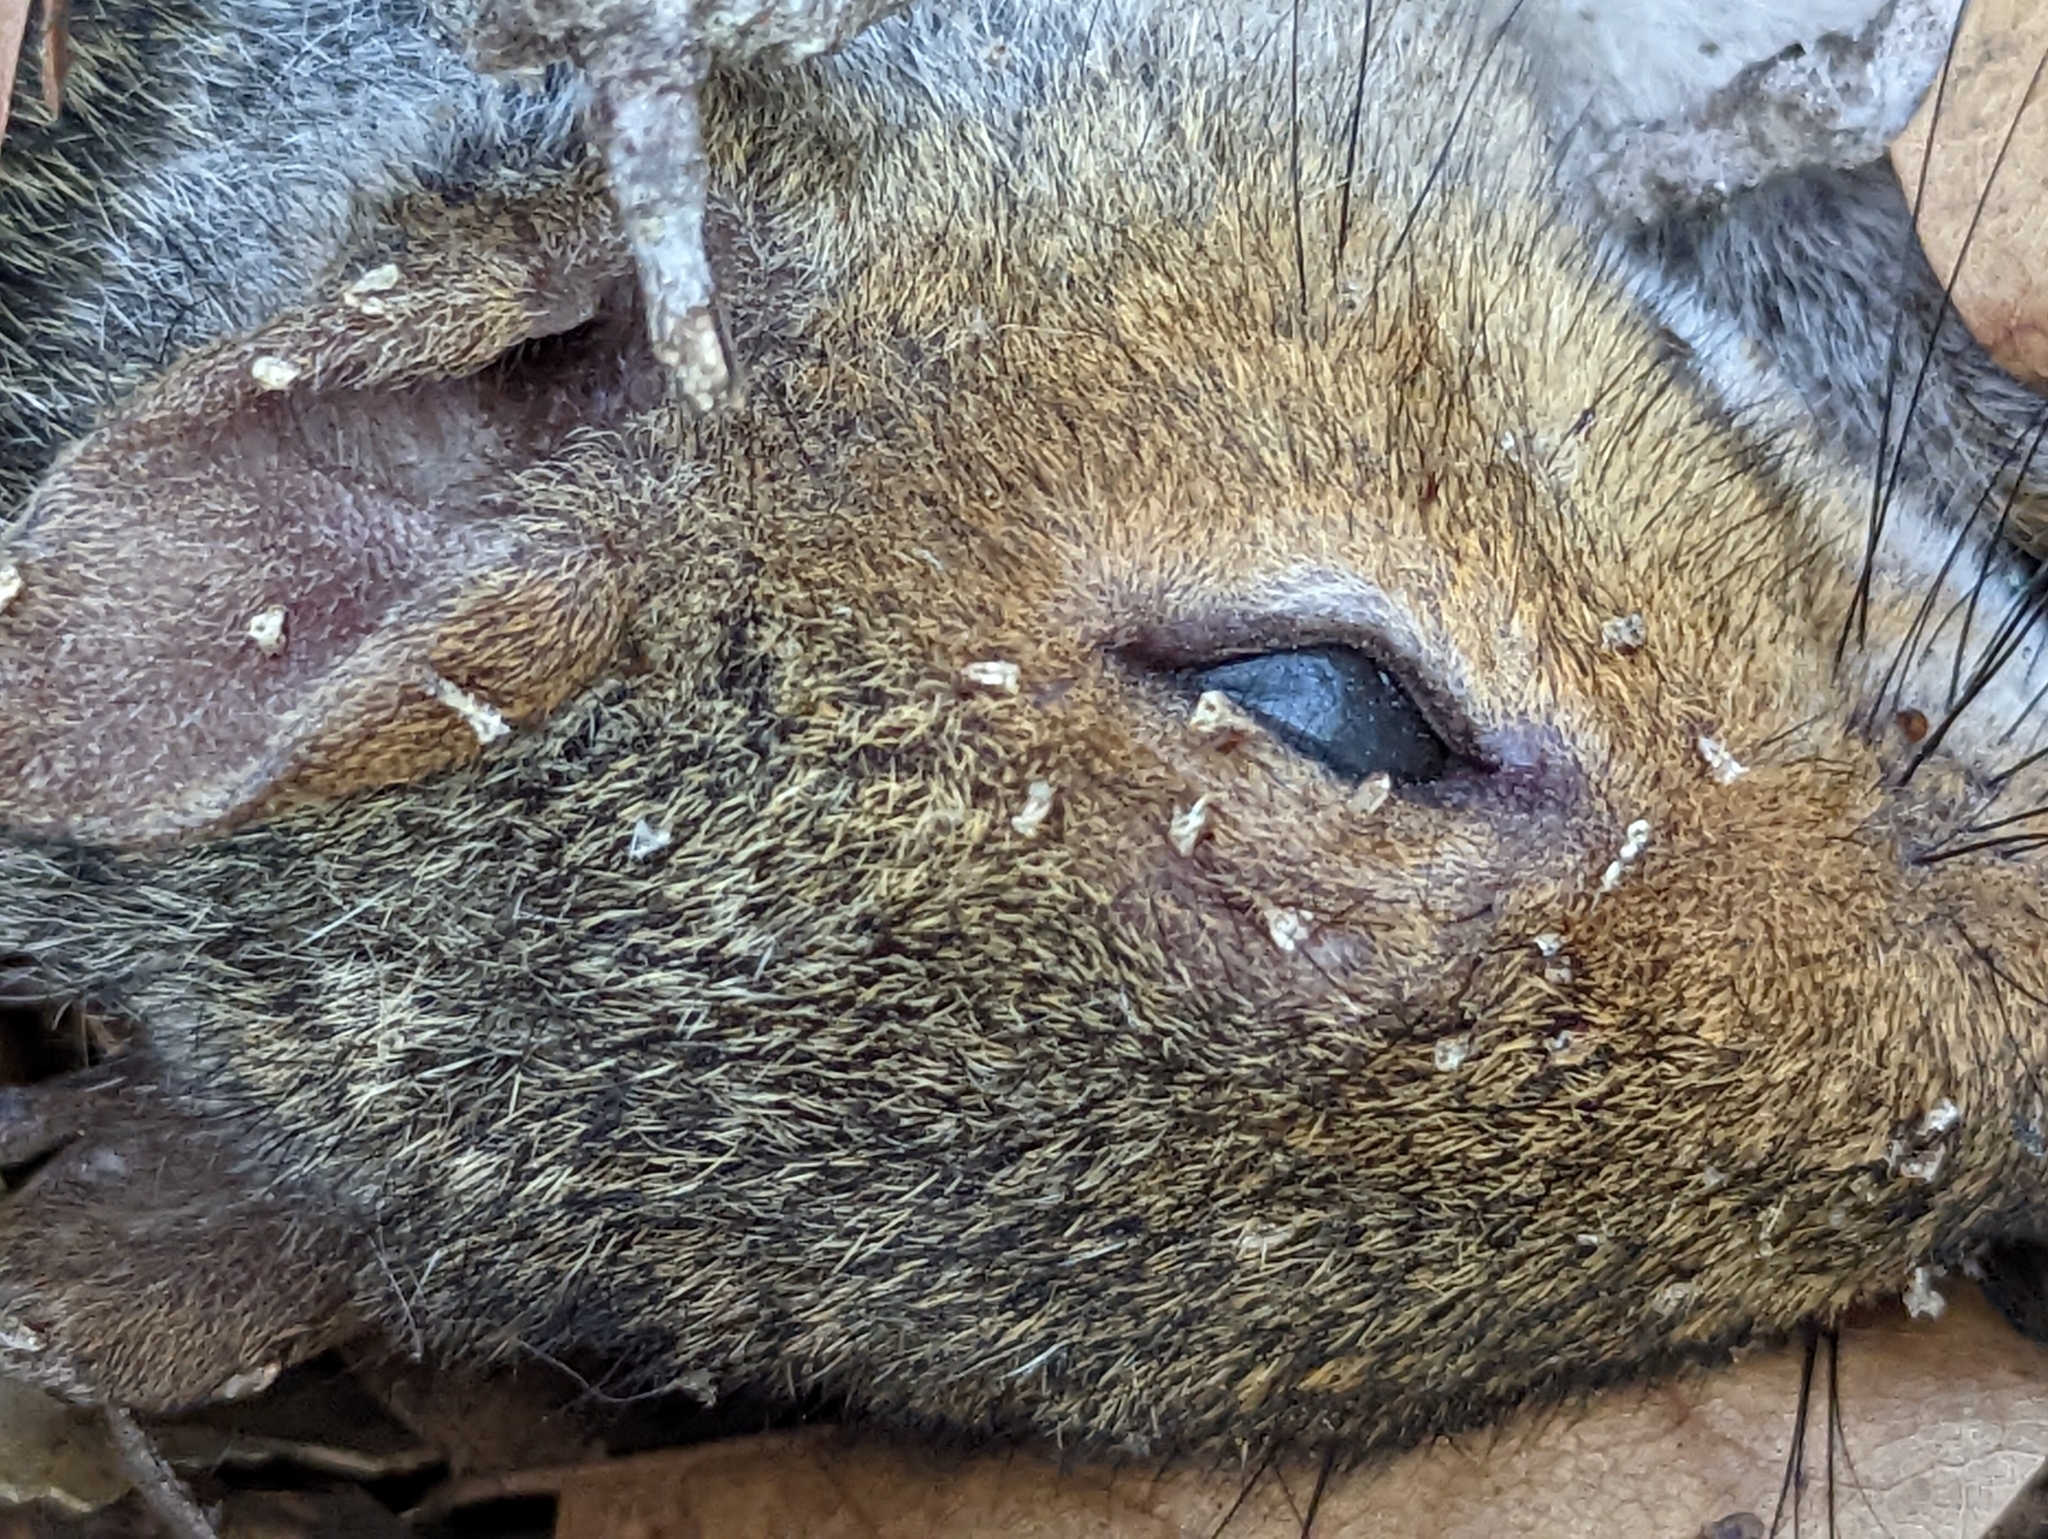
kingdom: Animalia
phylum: Chordata
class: Mammalia
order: Rodentia
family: Sciuridae
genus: Sciurus
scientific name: Sciurus carolinensis
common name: Eastern gray squirrel
